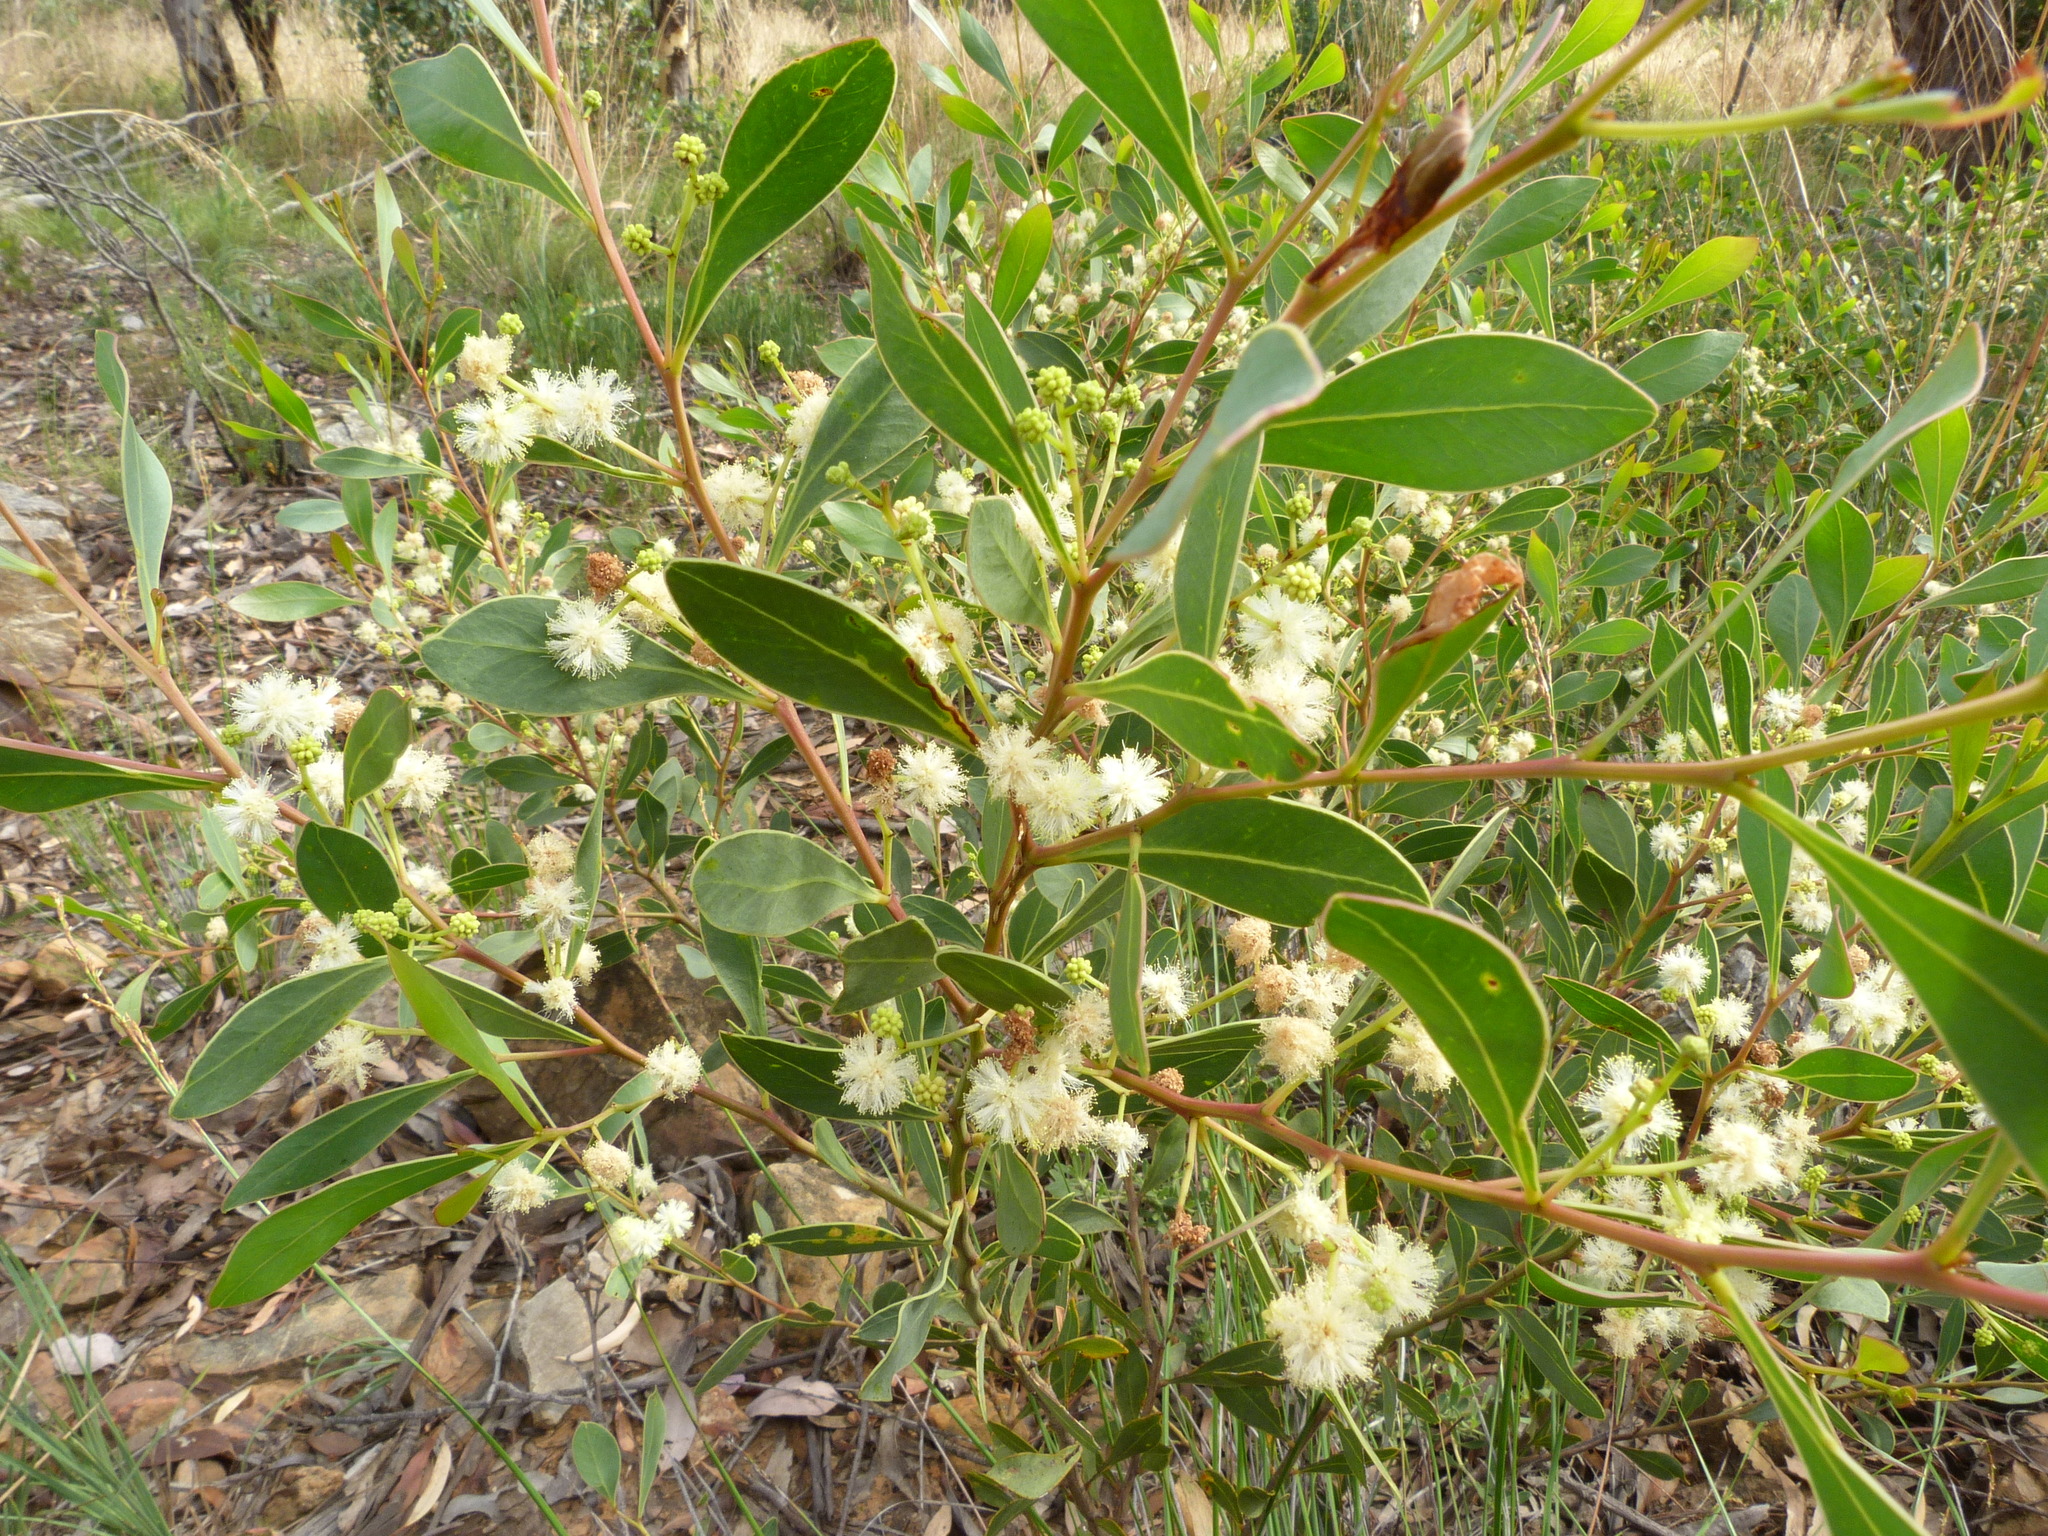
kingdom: Plantae
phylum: Tracheophyta
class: Magnoliopsida
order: Fabales
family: Fabaceae
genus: Acacia
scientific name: Acacia penninervis
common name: Hickory wattle
